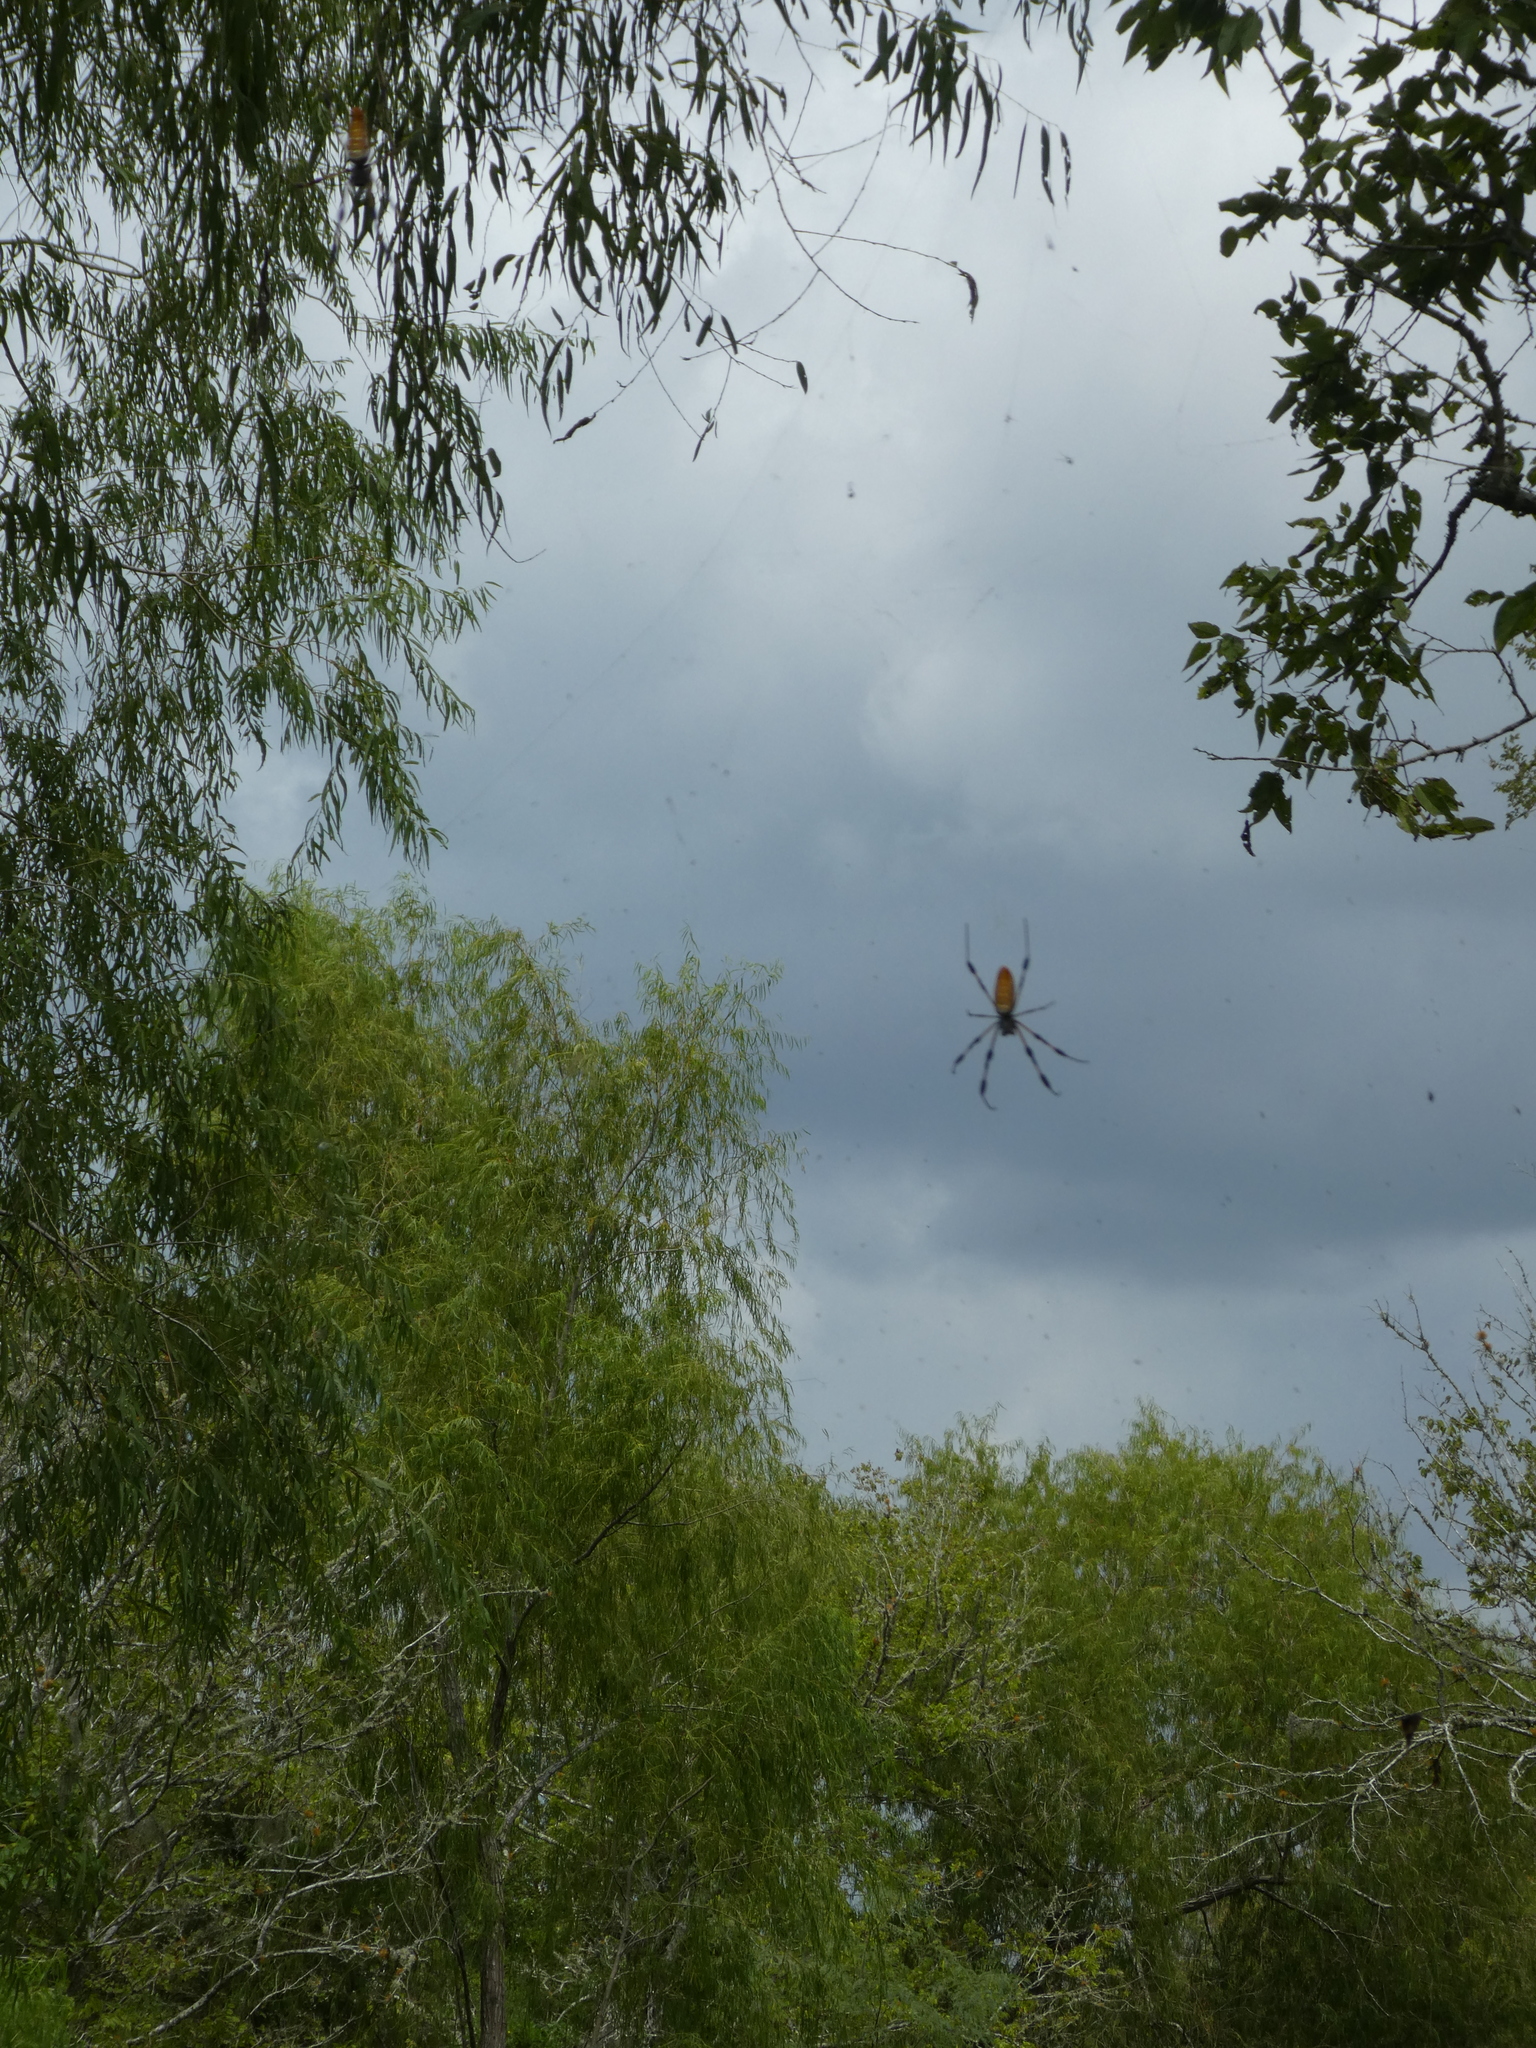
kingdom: Animalia
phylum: Arthropoda
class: Arachnida
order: Araneae
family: Araneidae
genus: Trichonephila
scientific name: Trichonephila clavipes
